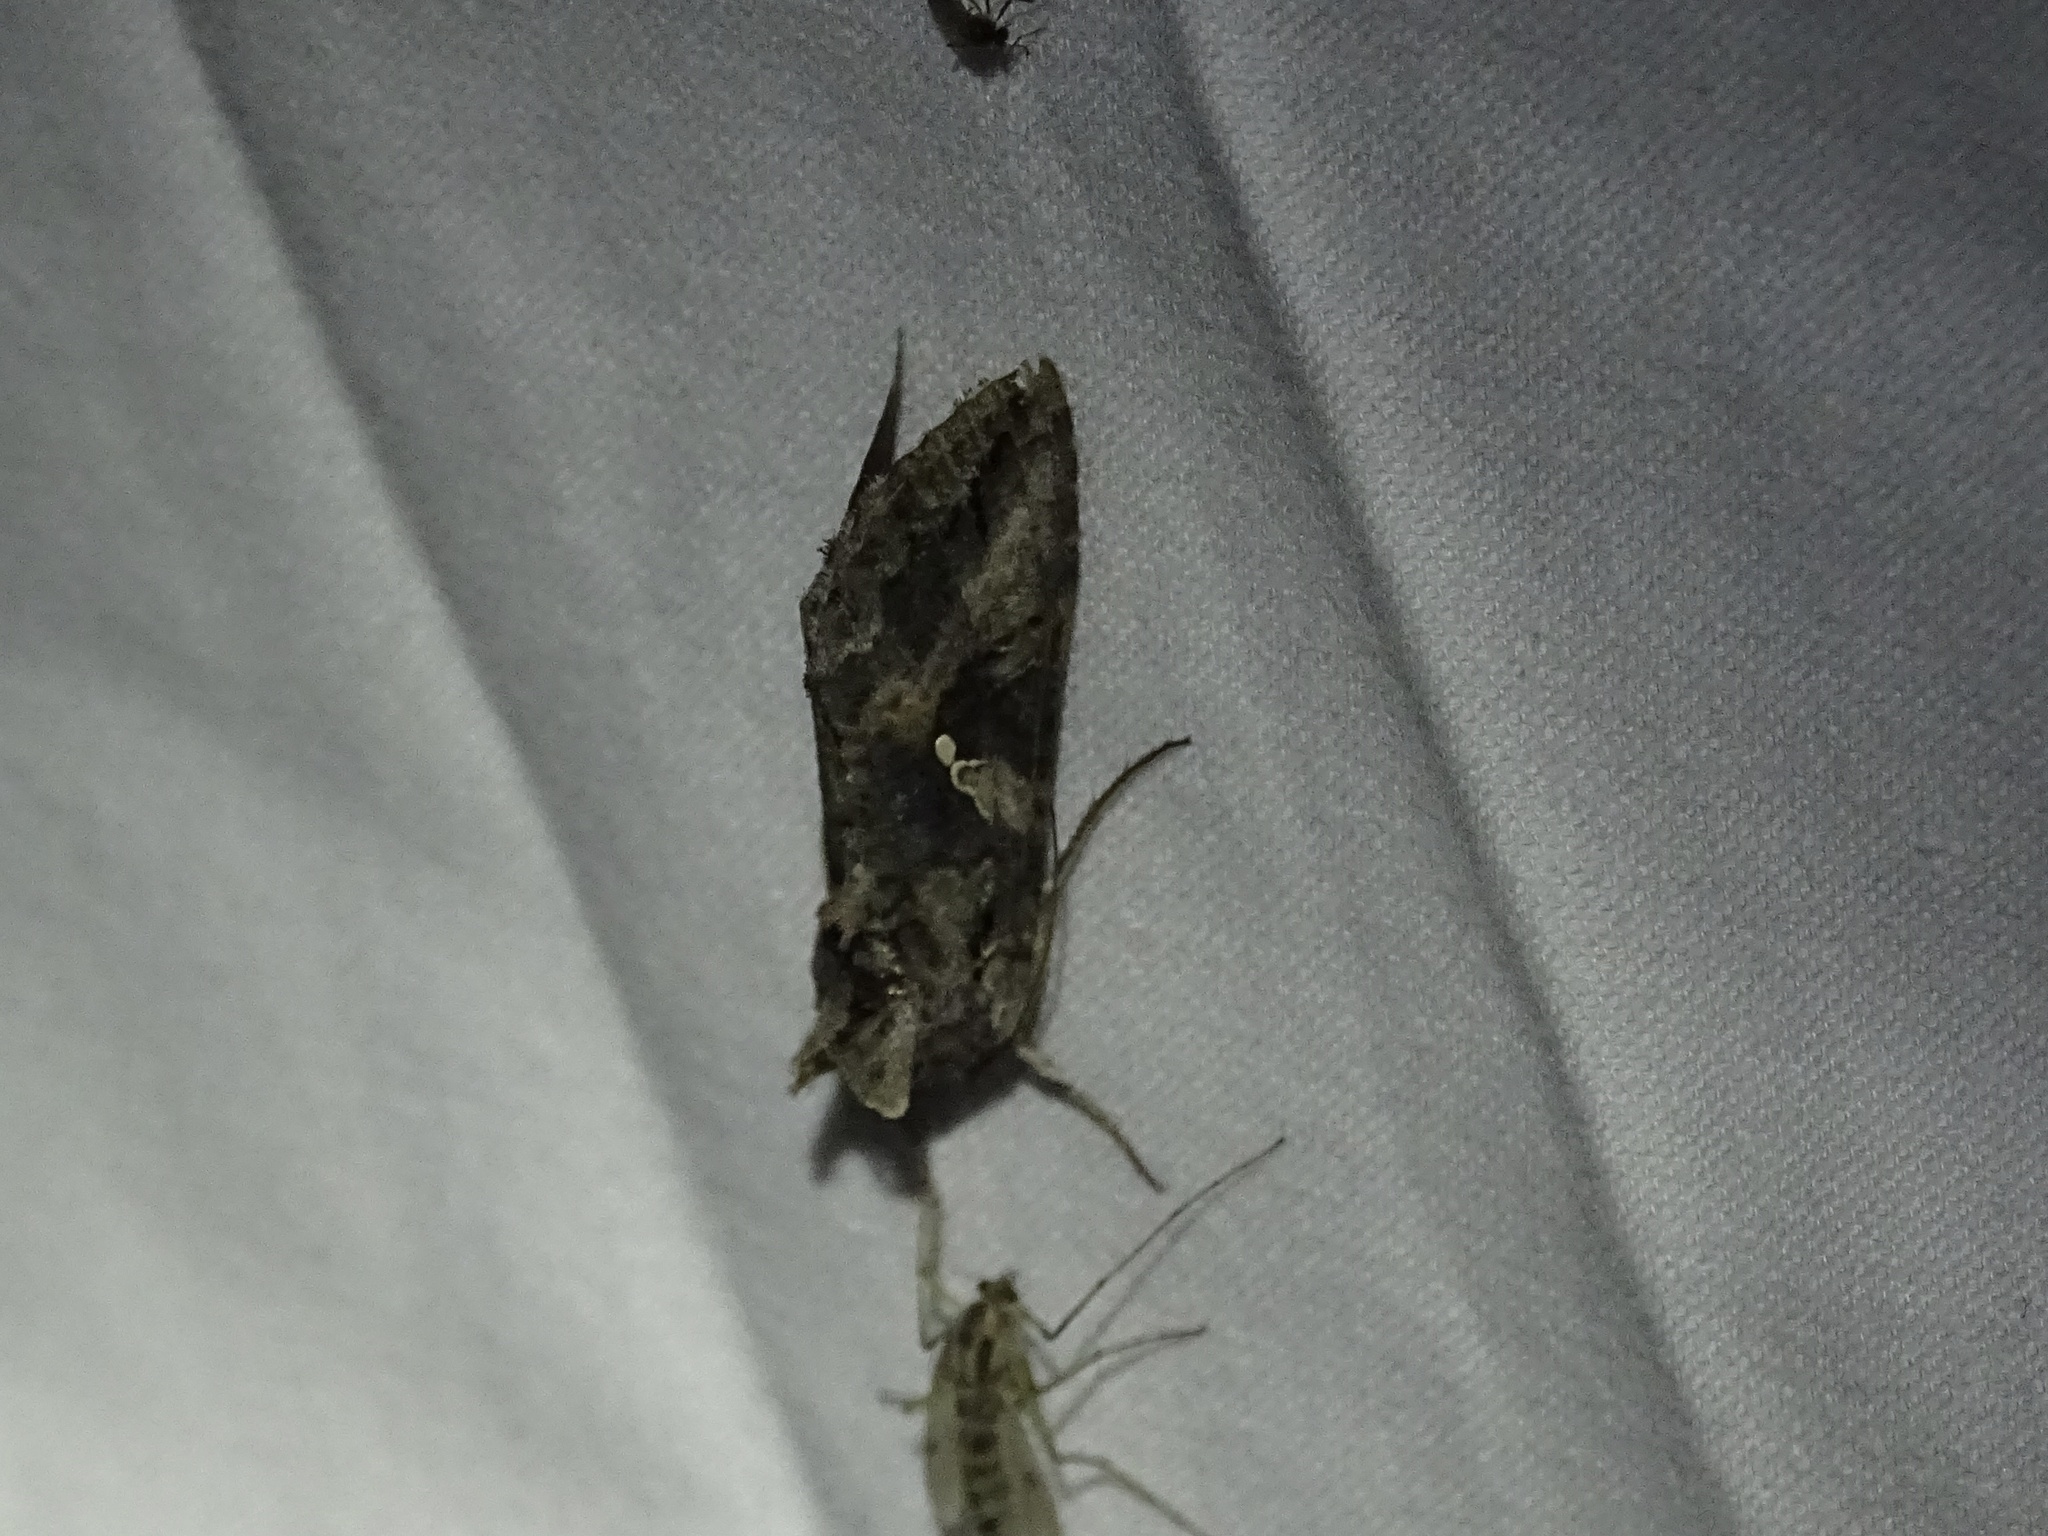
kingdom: Animalia
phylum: Arthropoda
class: Insecta
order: Lepidoptera
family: Noctuidae
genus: Rachiplusia
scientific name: Rachiplusia ou
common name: Gray looper moth
